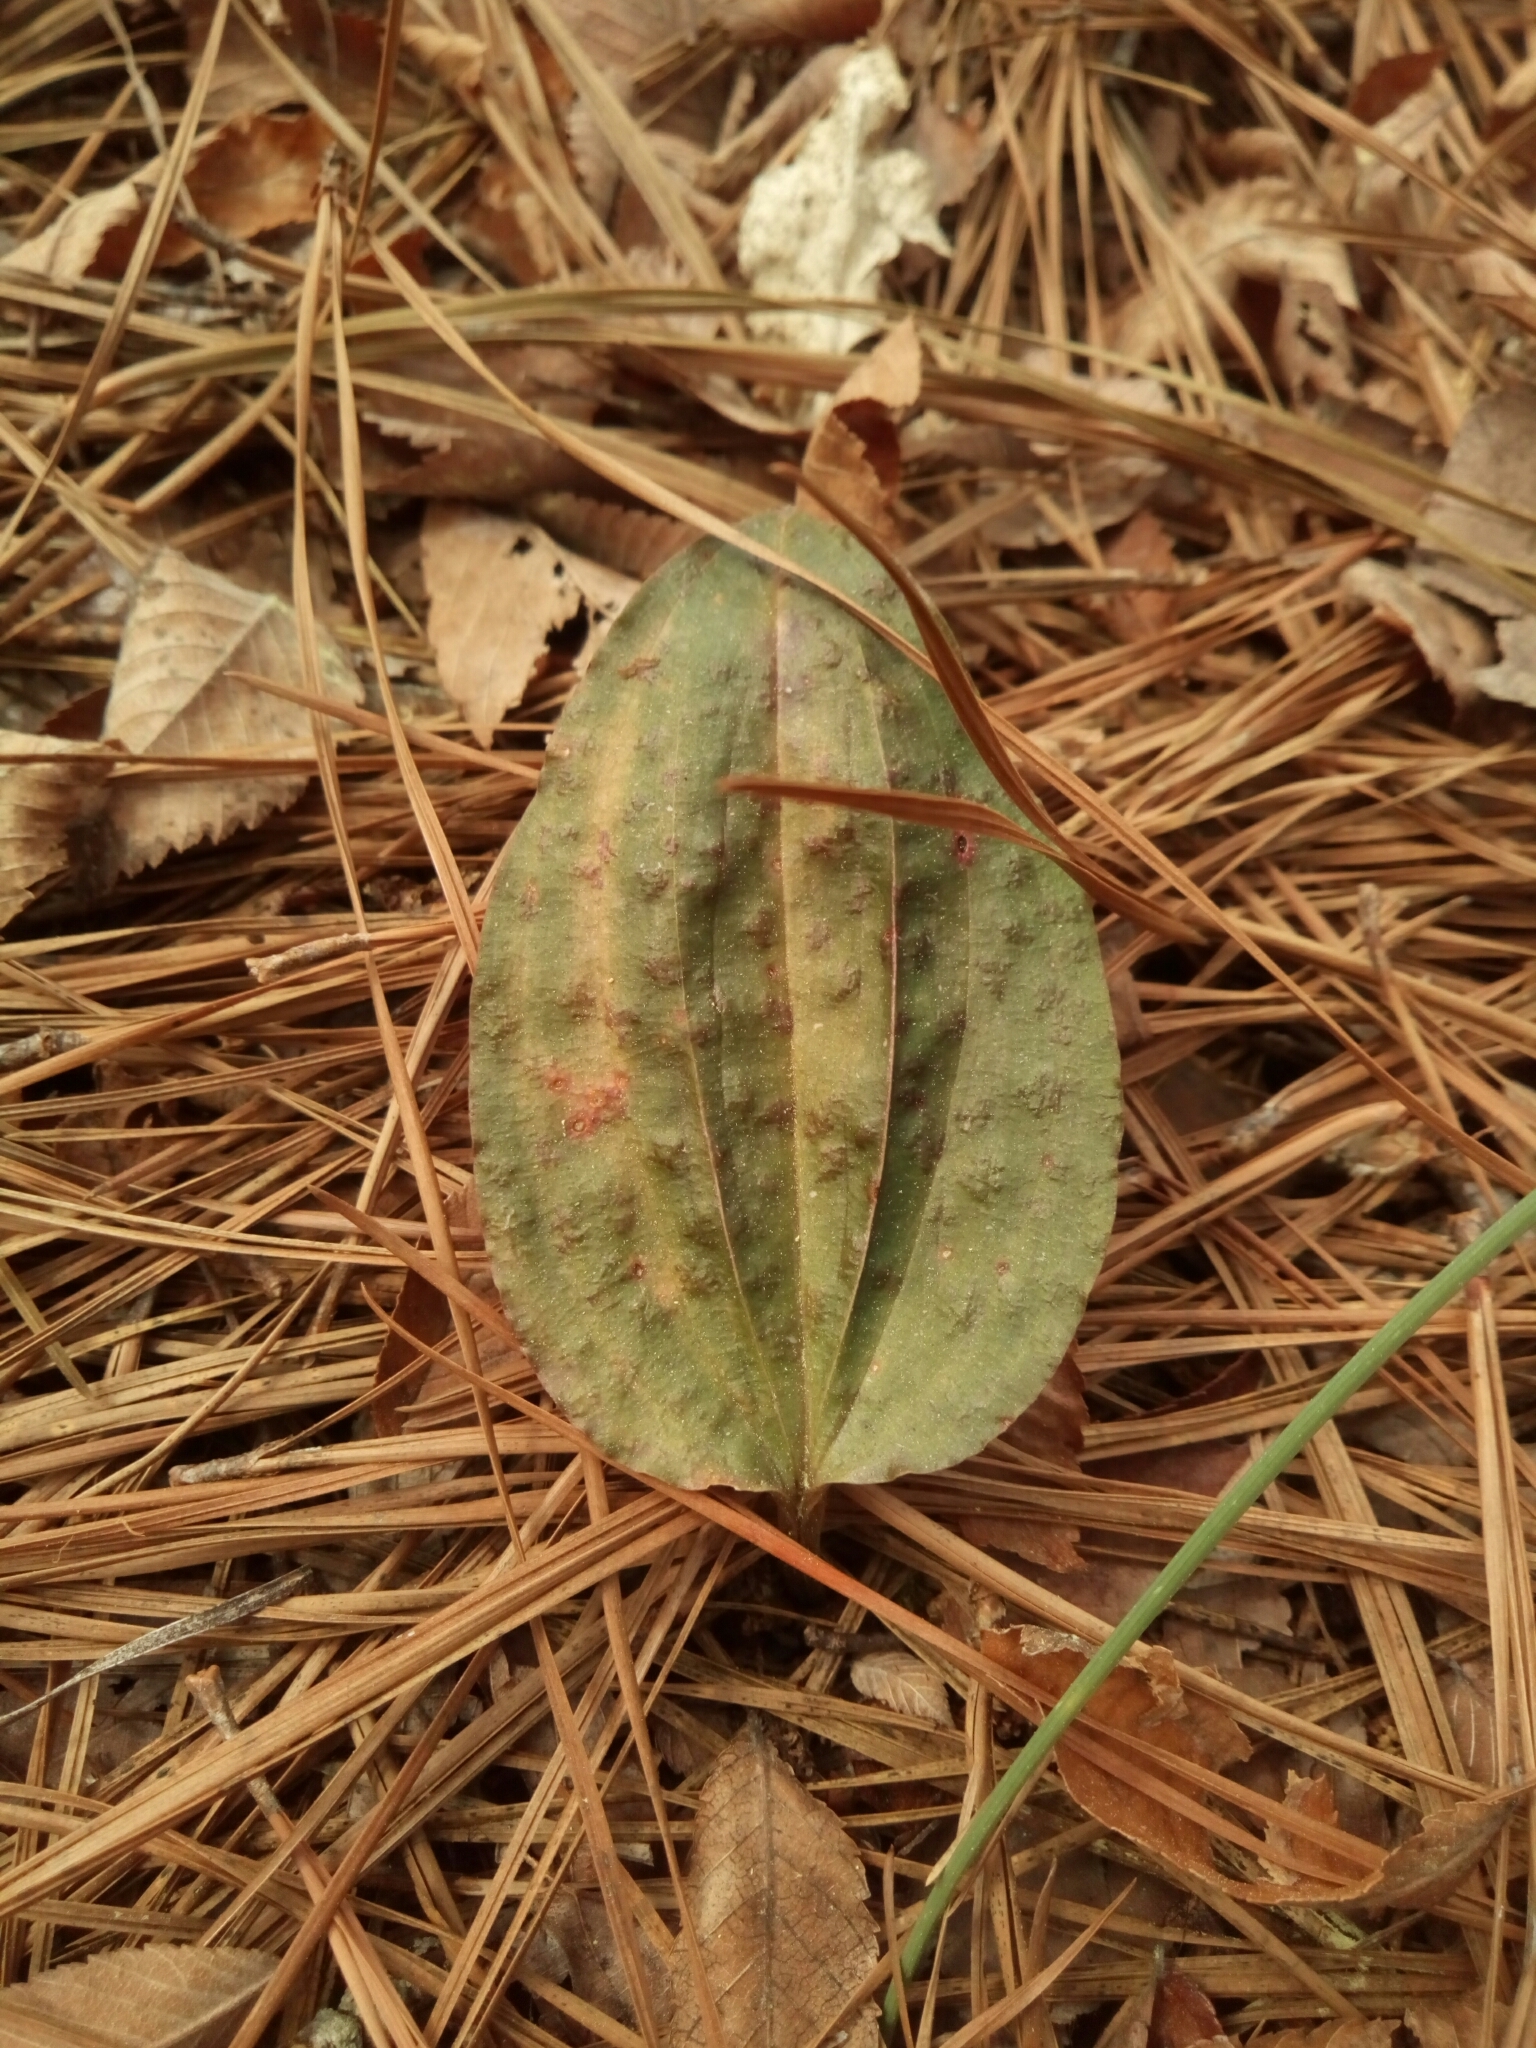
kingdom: Plantae
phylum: Tracheophyta
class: Liliopsida
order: Asparagales
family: Orchidaceae
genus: Tipularia
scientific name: Tipularia discolor
